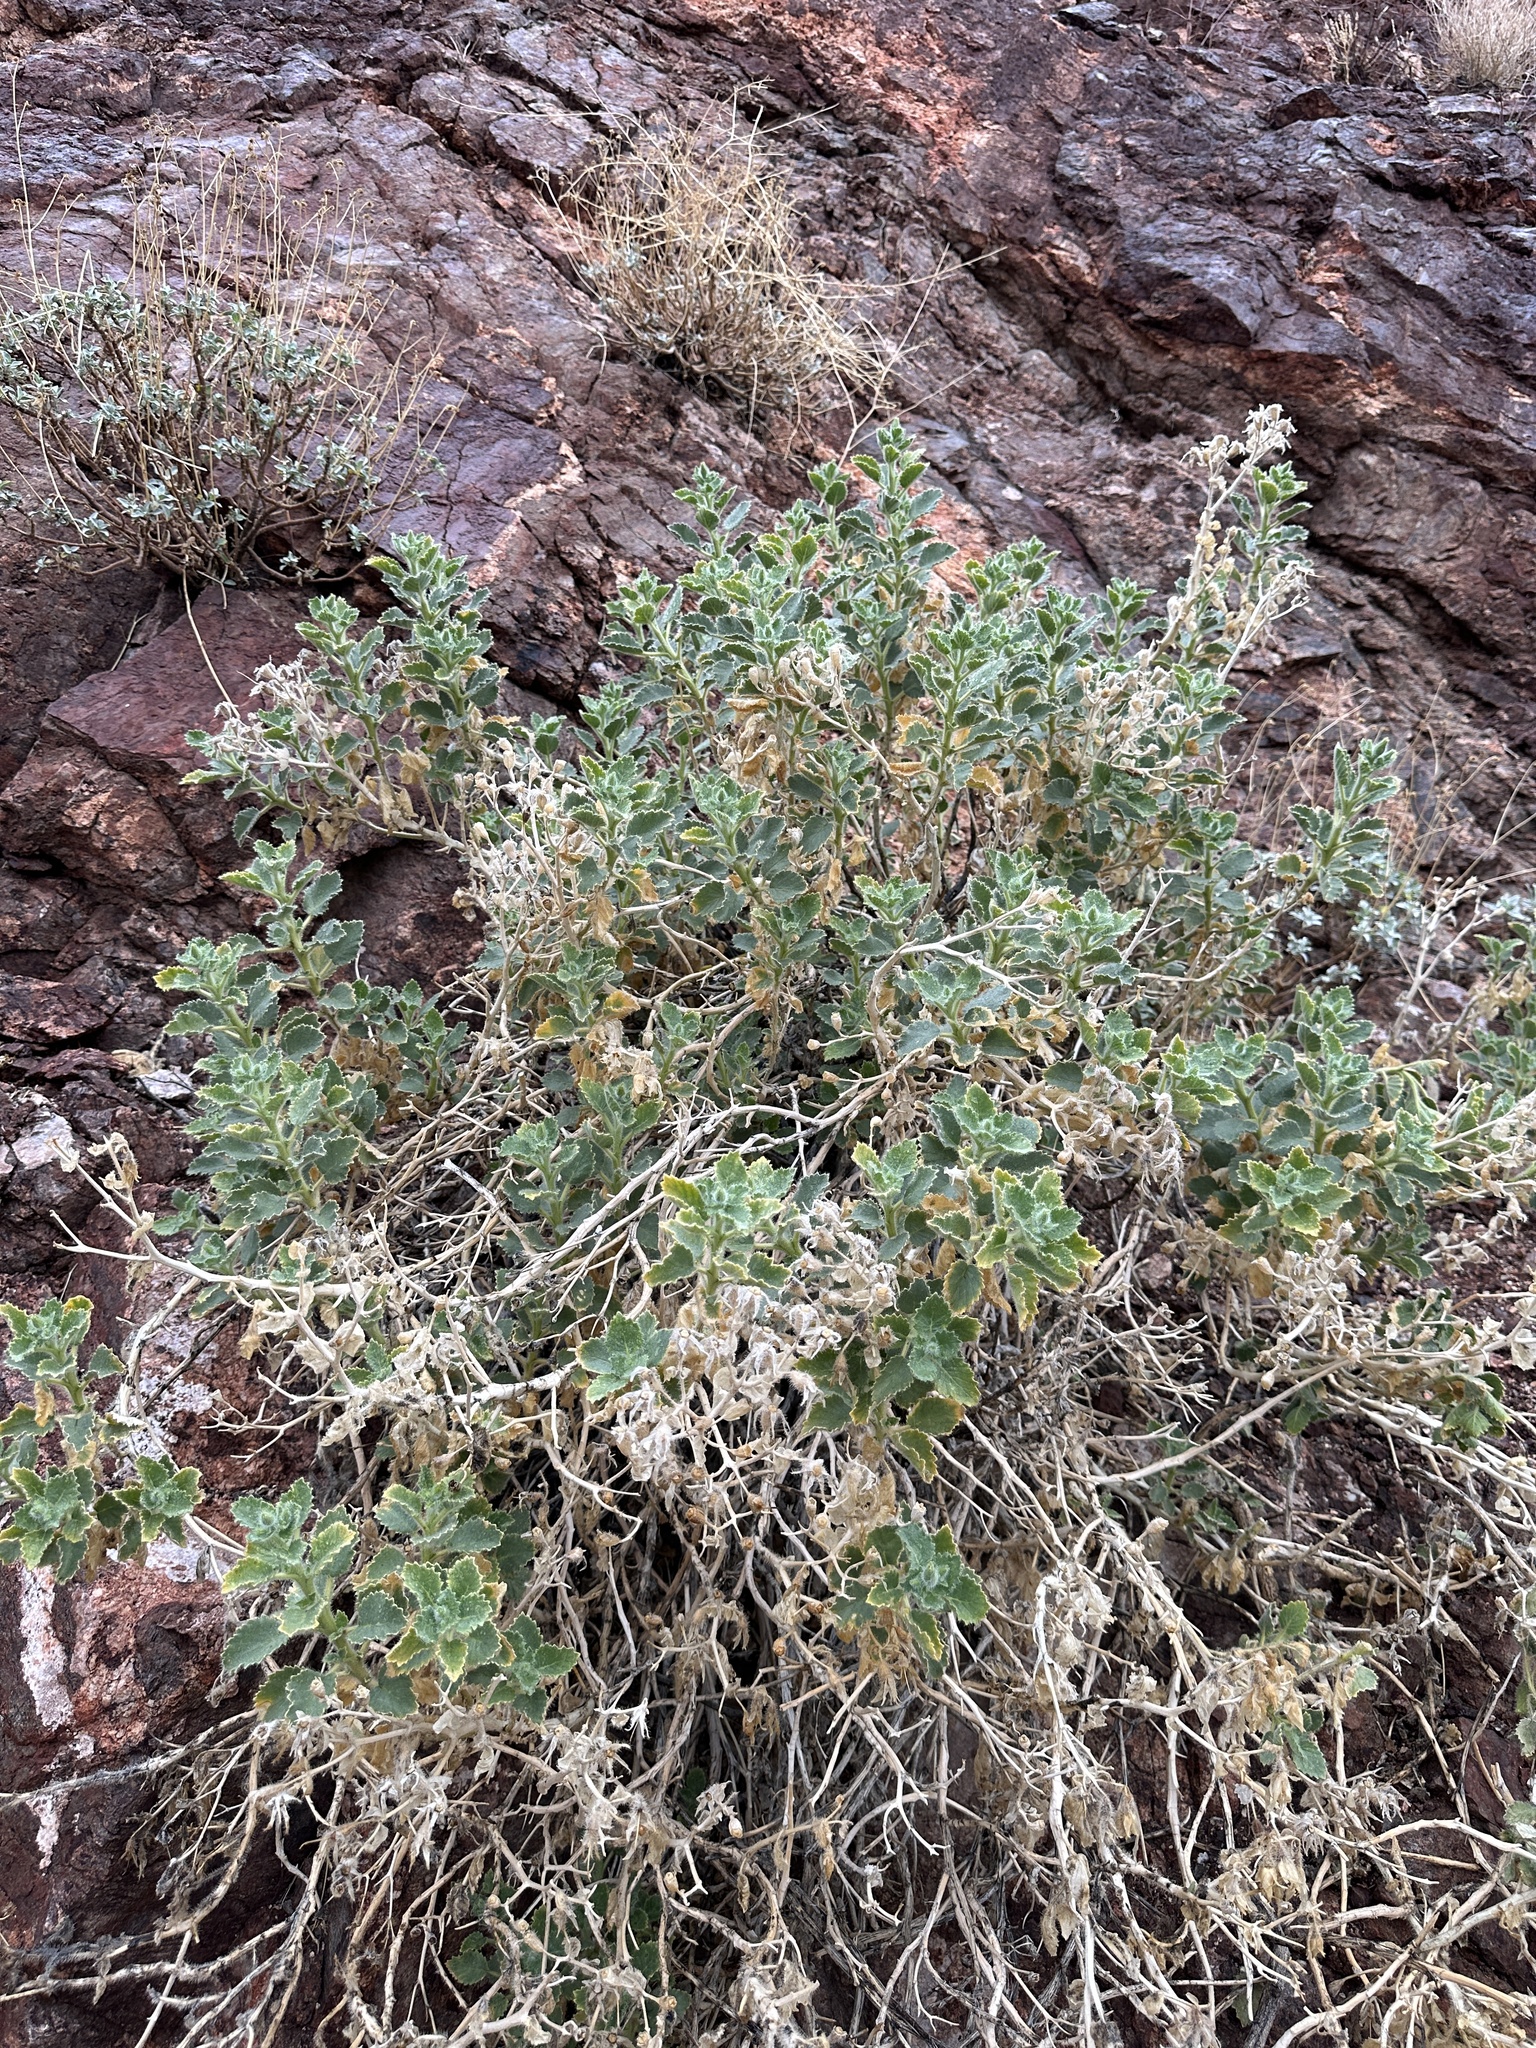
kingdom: Plantae
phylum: Tracheophyta
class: Magnoliopsida
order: Cornales
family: Loasaceae
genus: Eucnide
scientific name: Eucnide urens
